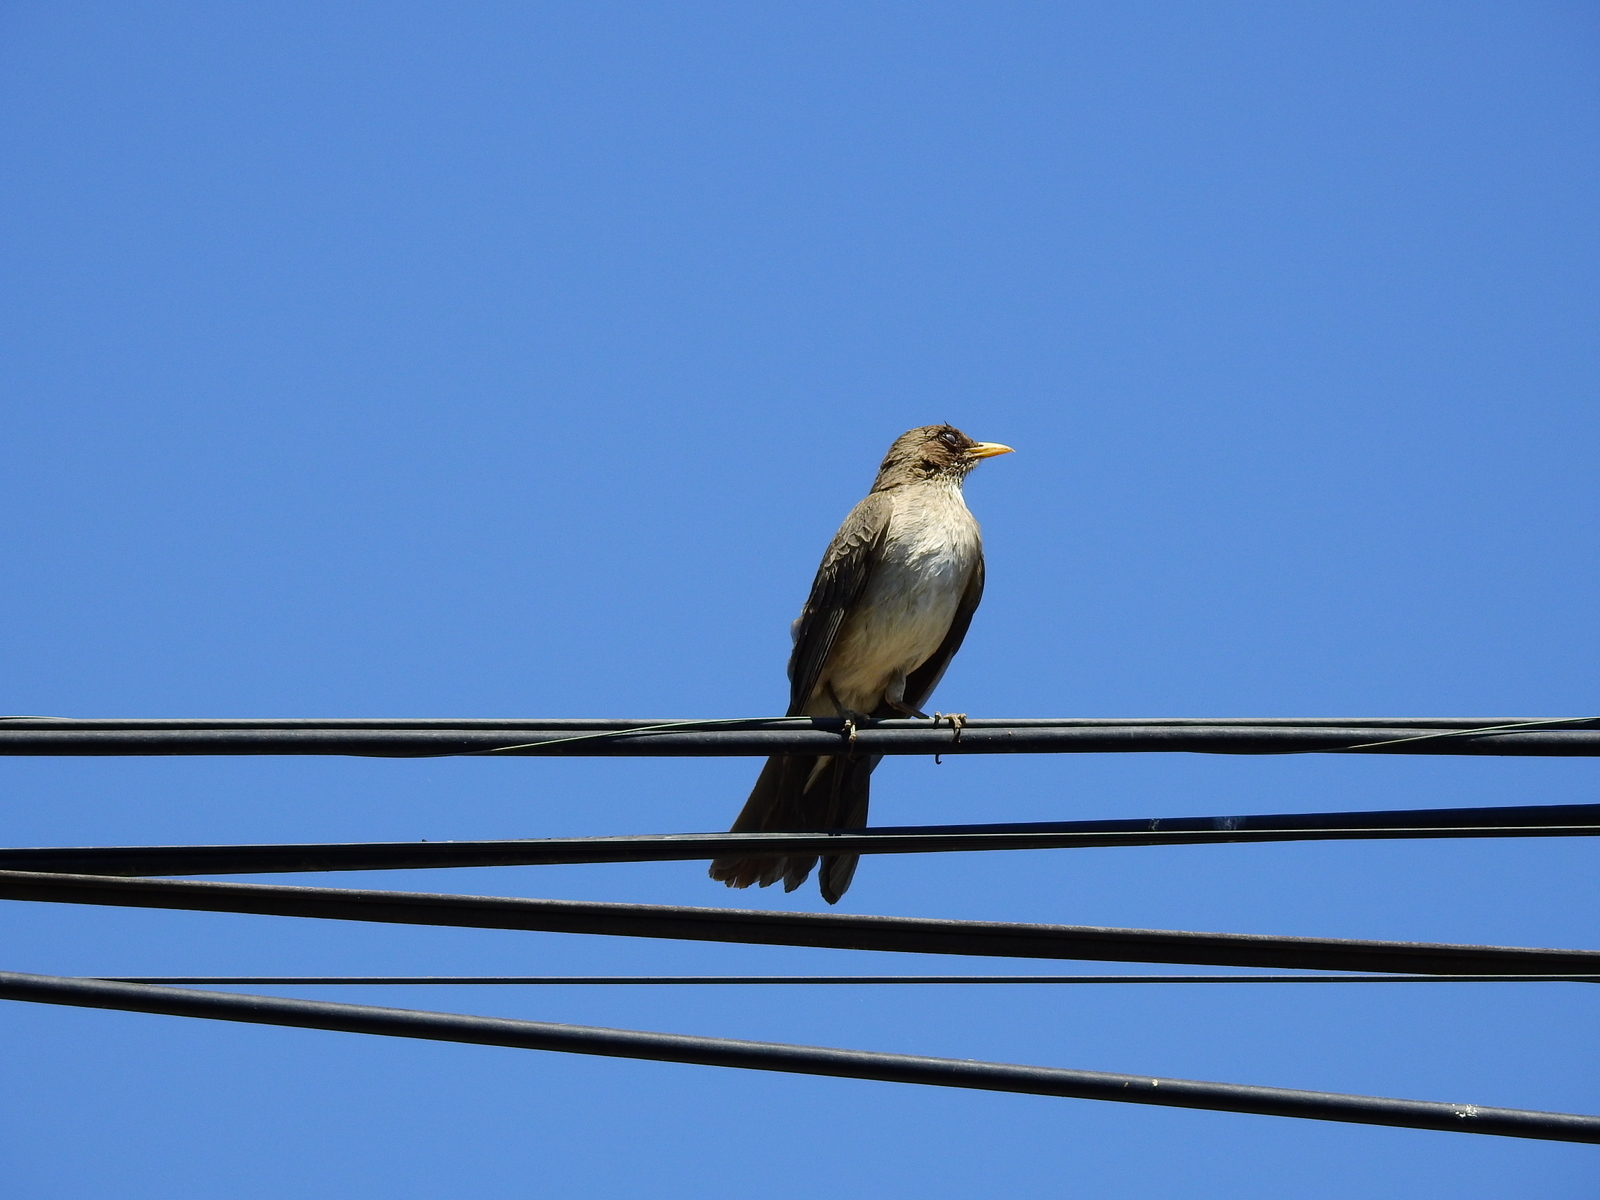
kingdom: Animalia
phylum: Chordata
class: Aves
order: Passeriformes
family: Turdidae
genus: Turdus
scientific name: Turdus amaurochalinus
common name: Creamy-bellied thrush
